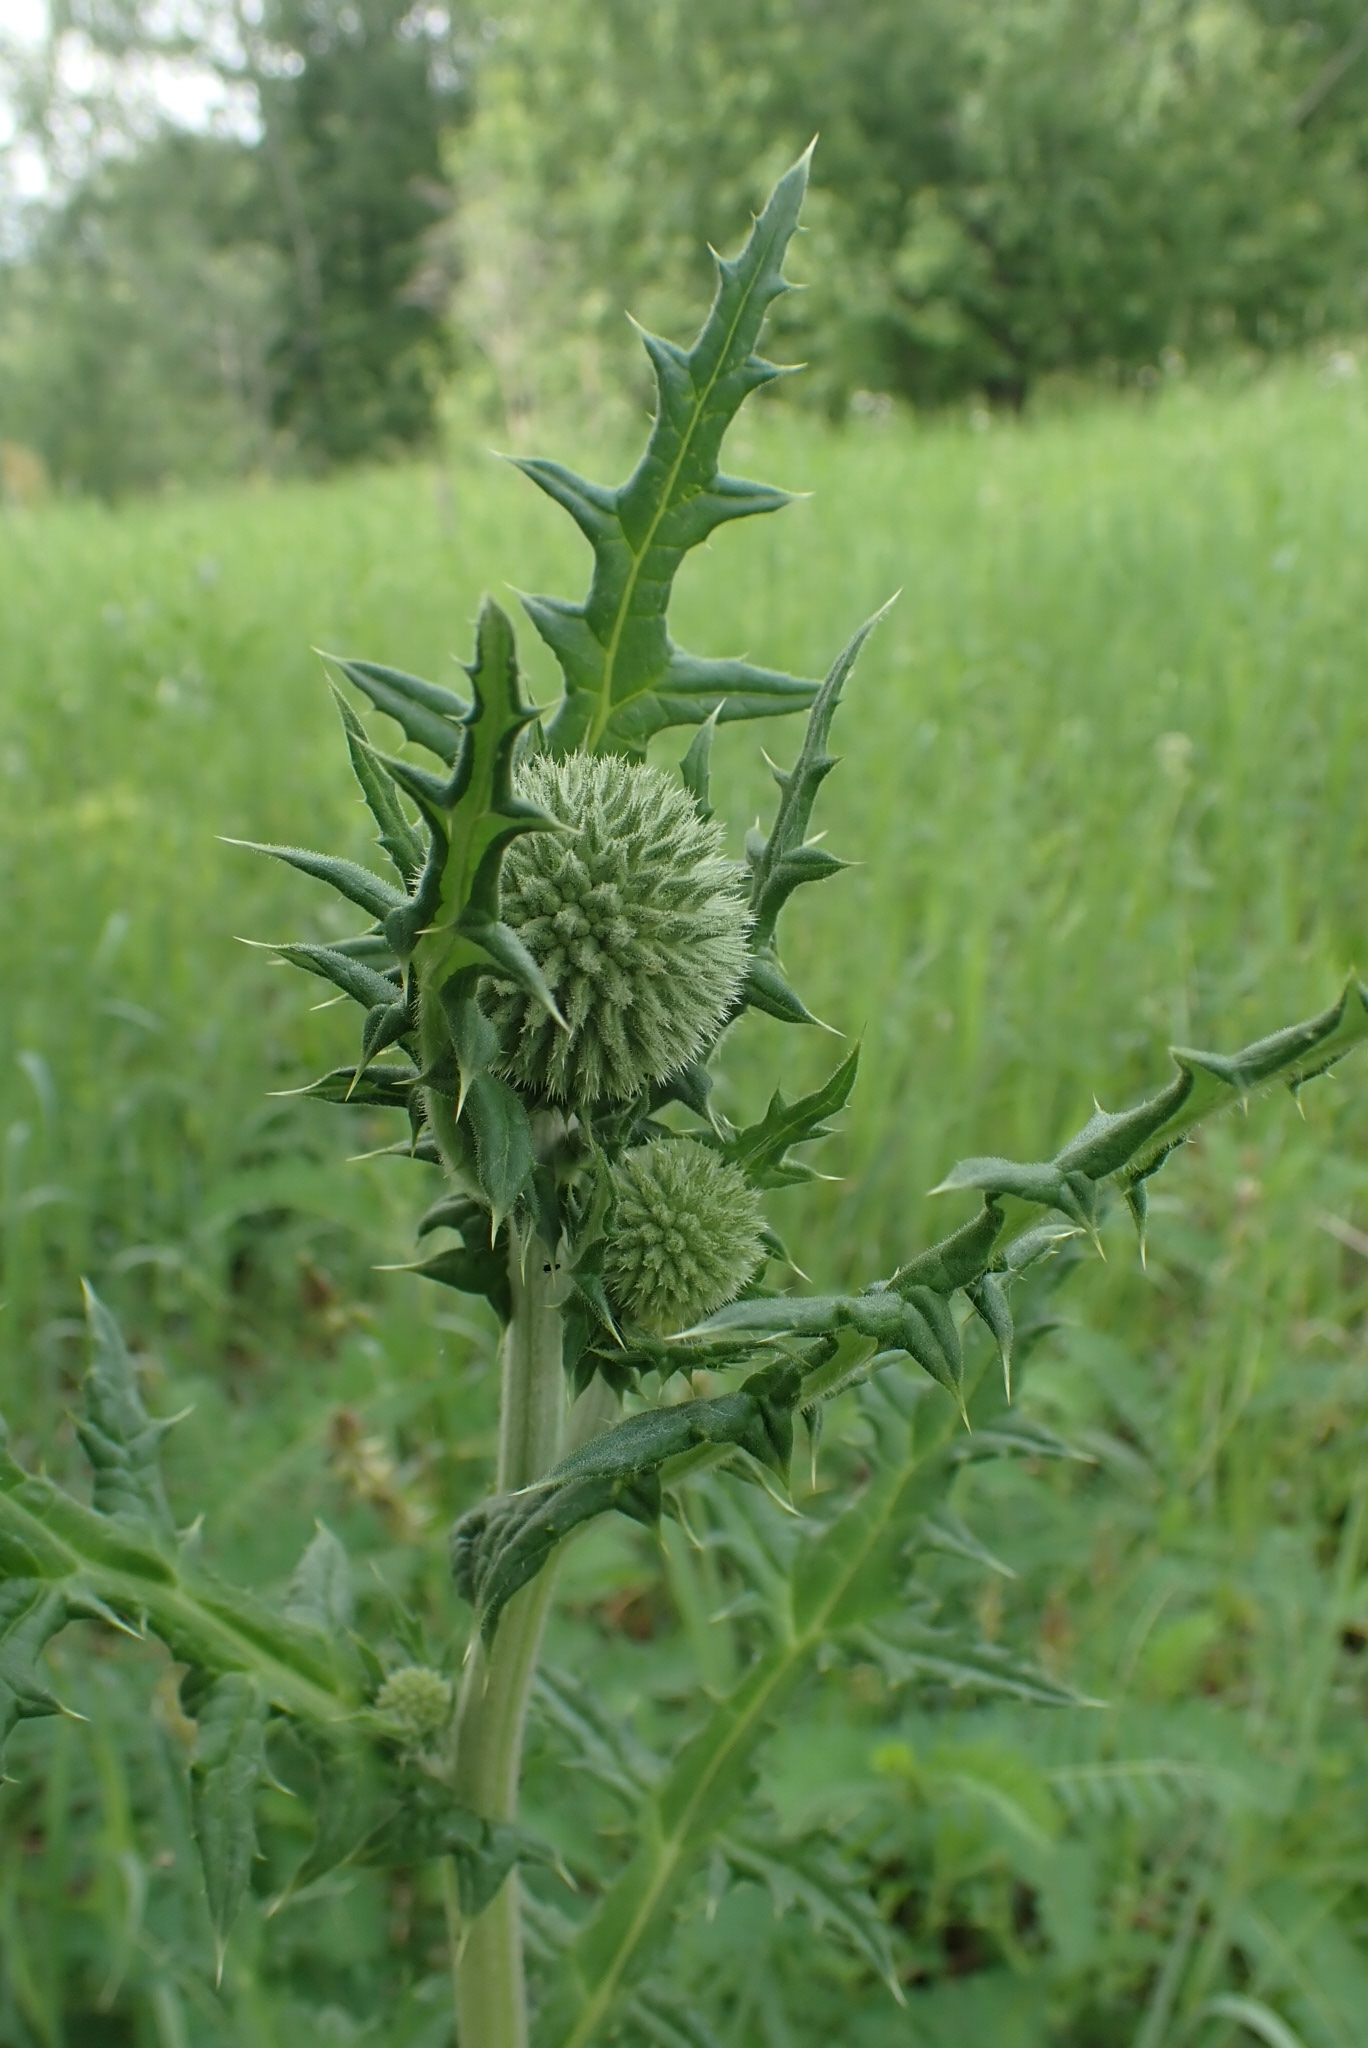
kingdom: Plantae
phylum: Tracheophyta
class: Magnoliopsida
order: Asterales
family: Asteraceae
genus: Echinops
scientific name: Echinops sphaerocephalus
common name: Glandular globe-thistle
